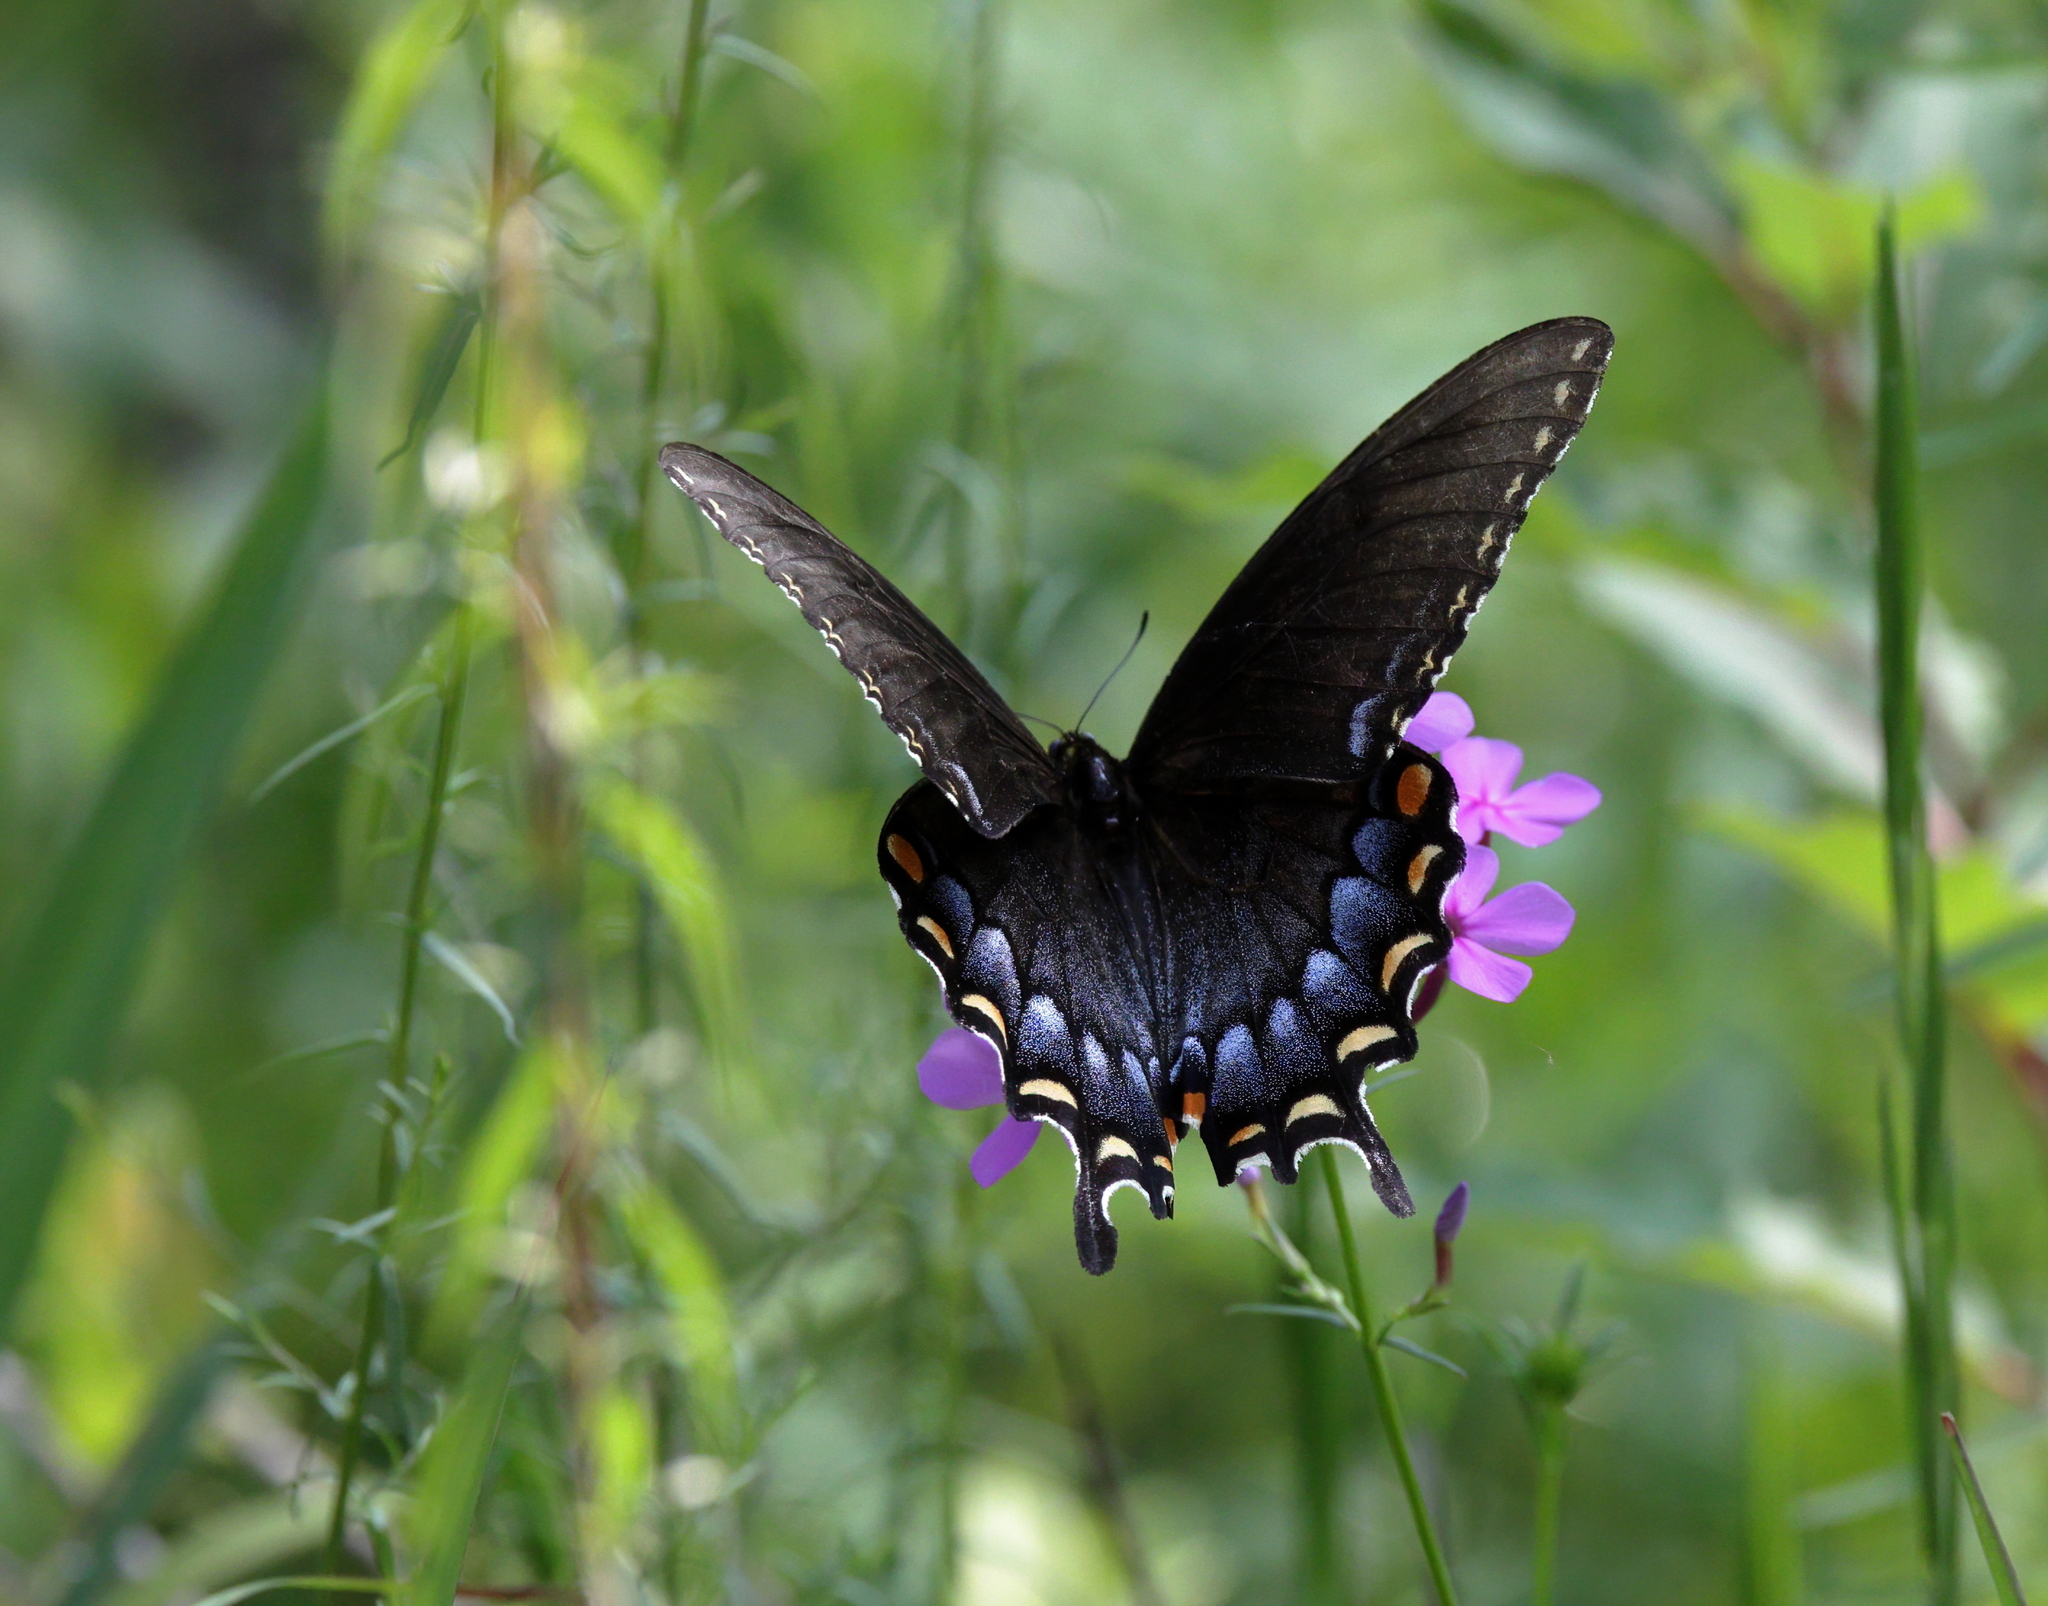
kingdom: Animalia
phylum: Arthropoda
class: Insecta
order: Lepidoptera
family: Papilionidae
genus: Papilio
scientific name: Papilio glaucus
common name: Tiger swallowtail
